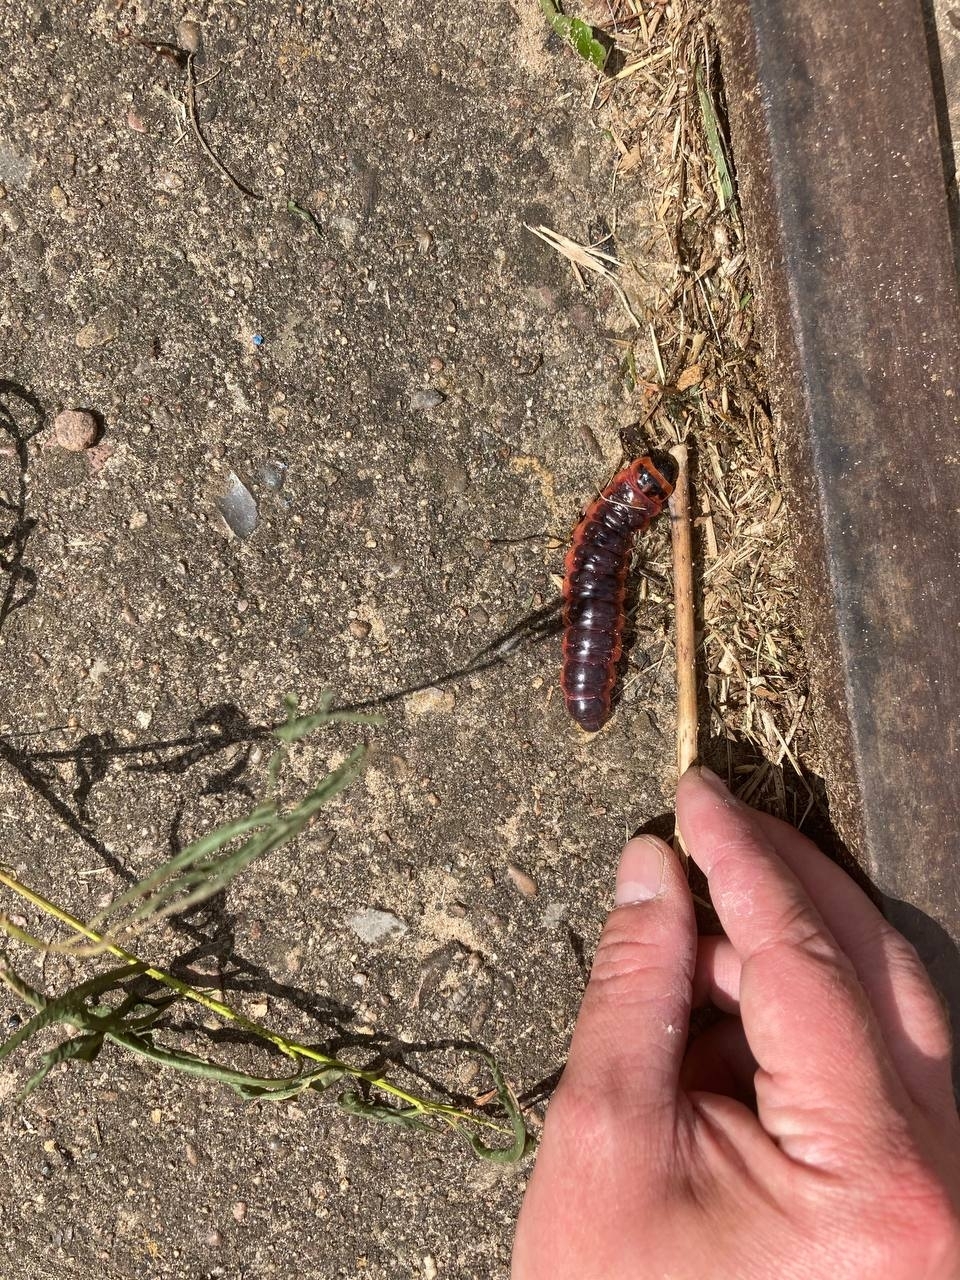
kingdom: Animalia
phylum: Arthropoda
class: Insecta
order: Lepidoptera
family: Cossidae
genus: Cossus
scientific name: Cossus cossus
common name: Goat moth
